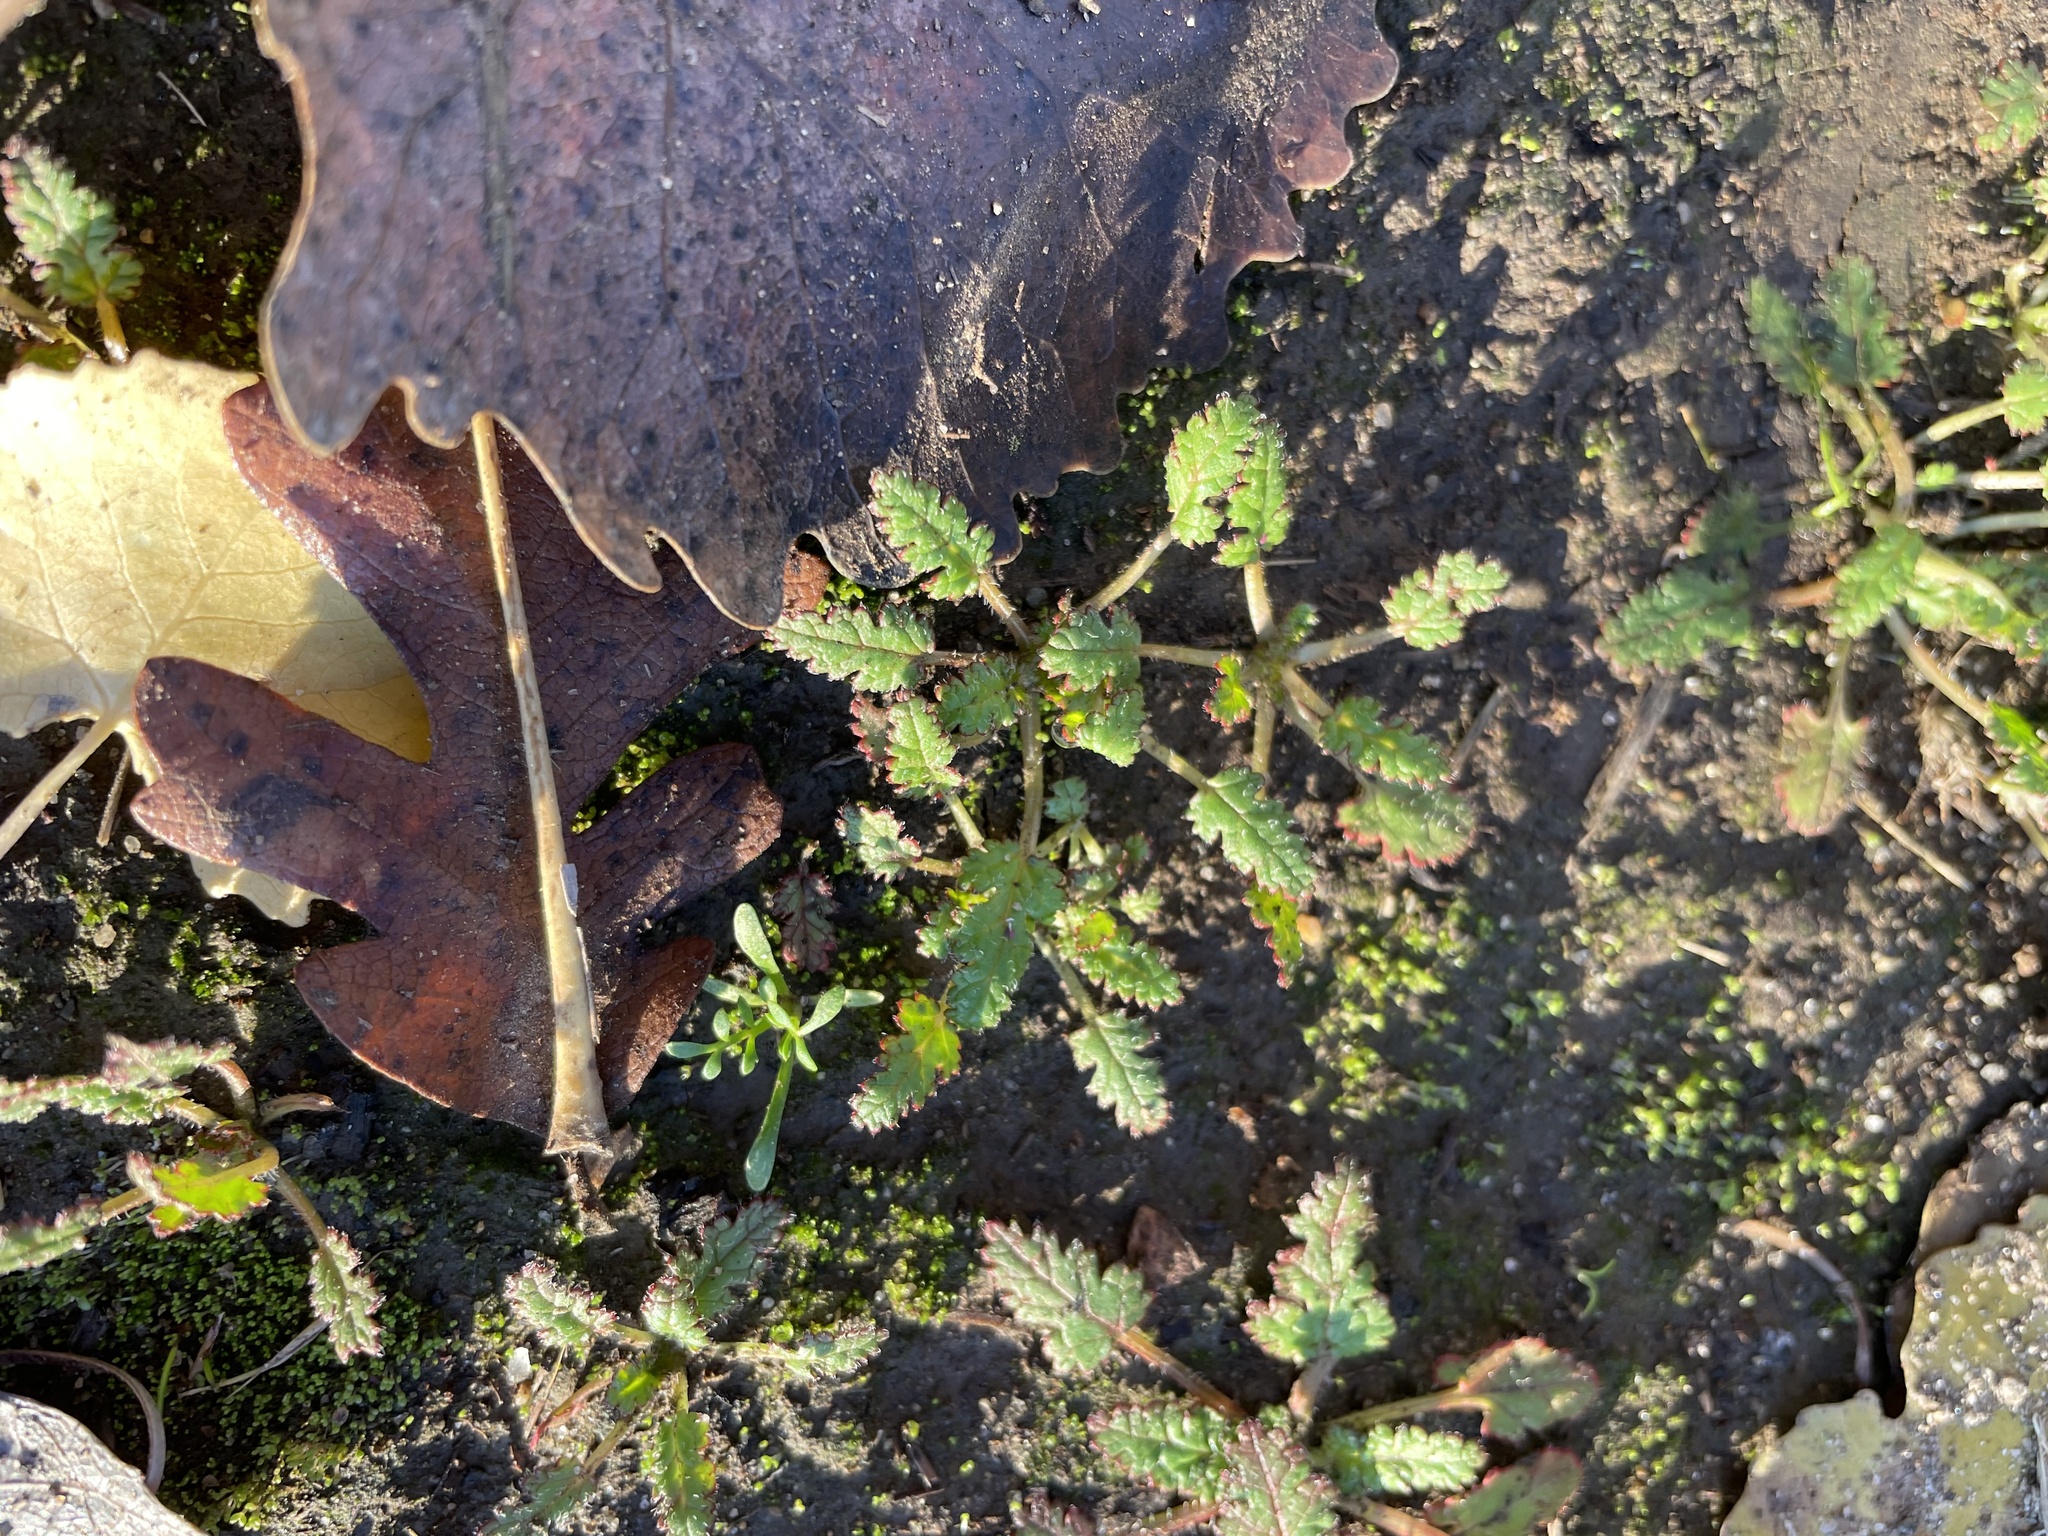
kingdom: Plantae
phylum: Tracheophyta
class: Magnoliopsida
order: Geraniales
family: Geraniaceae
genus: Erodium
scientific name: Erodium
